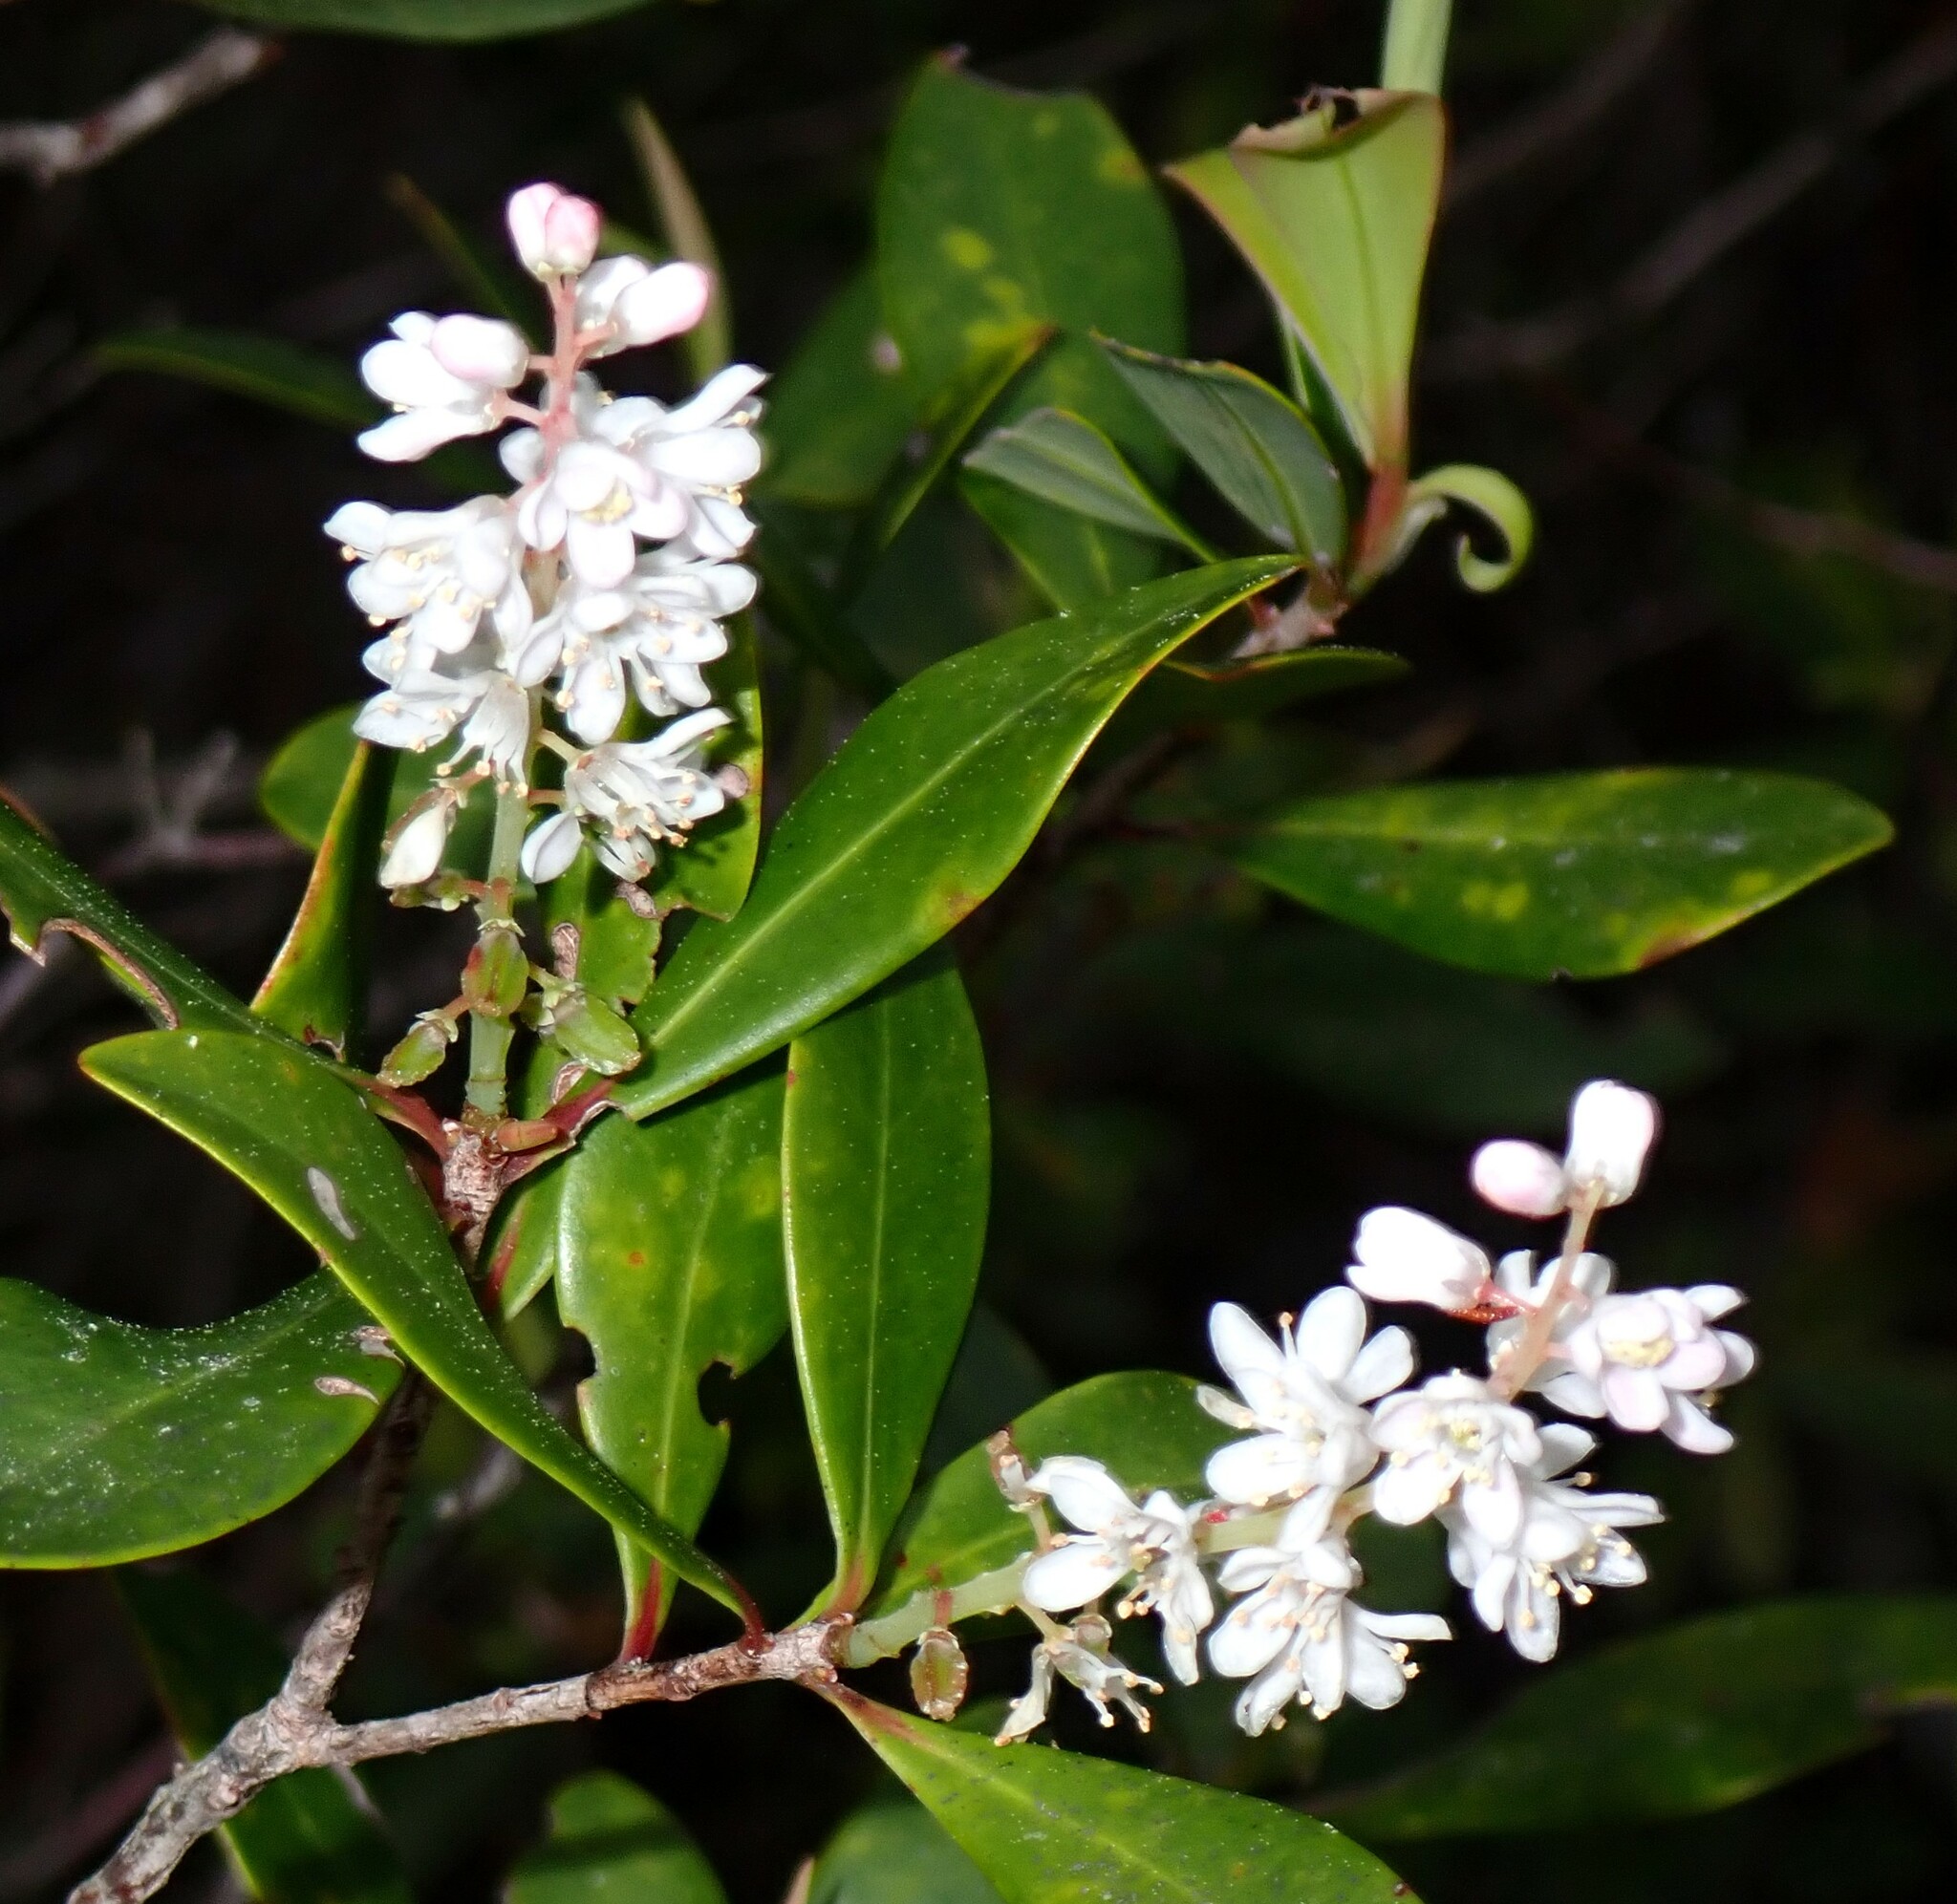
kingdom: Plantae
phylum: Tracheophyta
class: Magnoliopsida
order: Ericales
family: Cyrillaceae
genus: Cliftonia
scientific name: Cliftonia monophylla
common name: Titi
